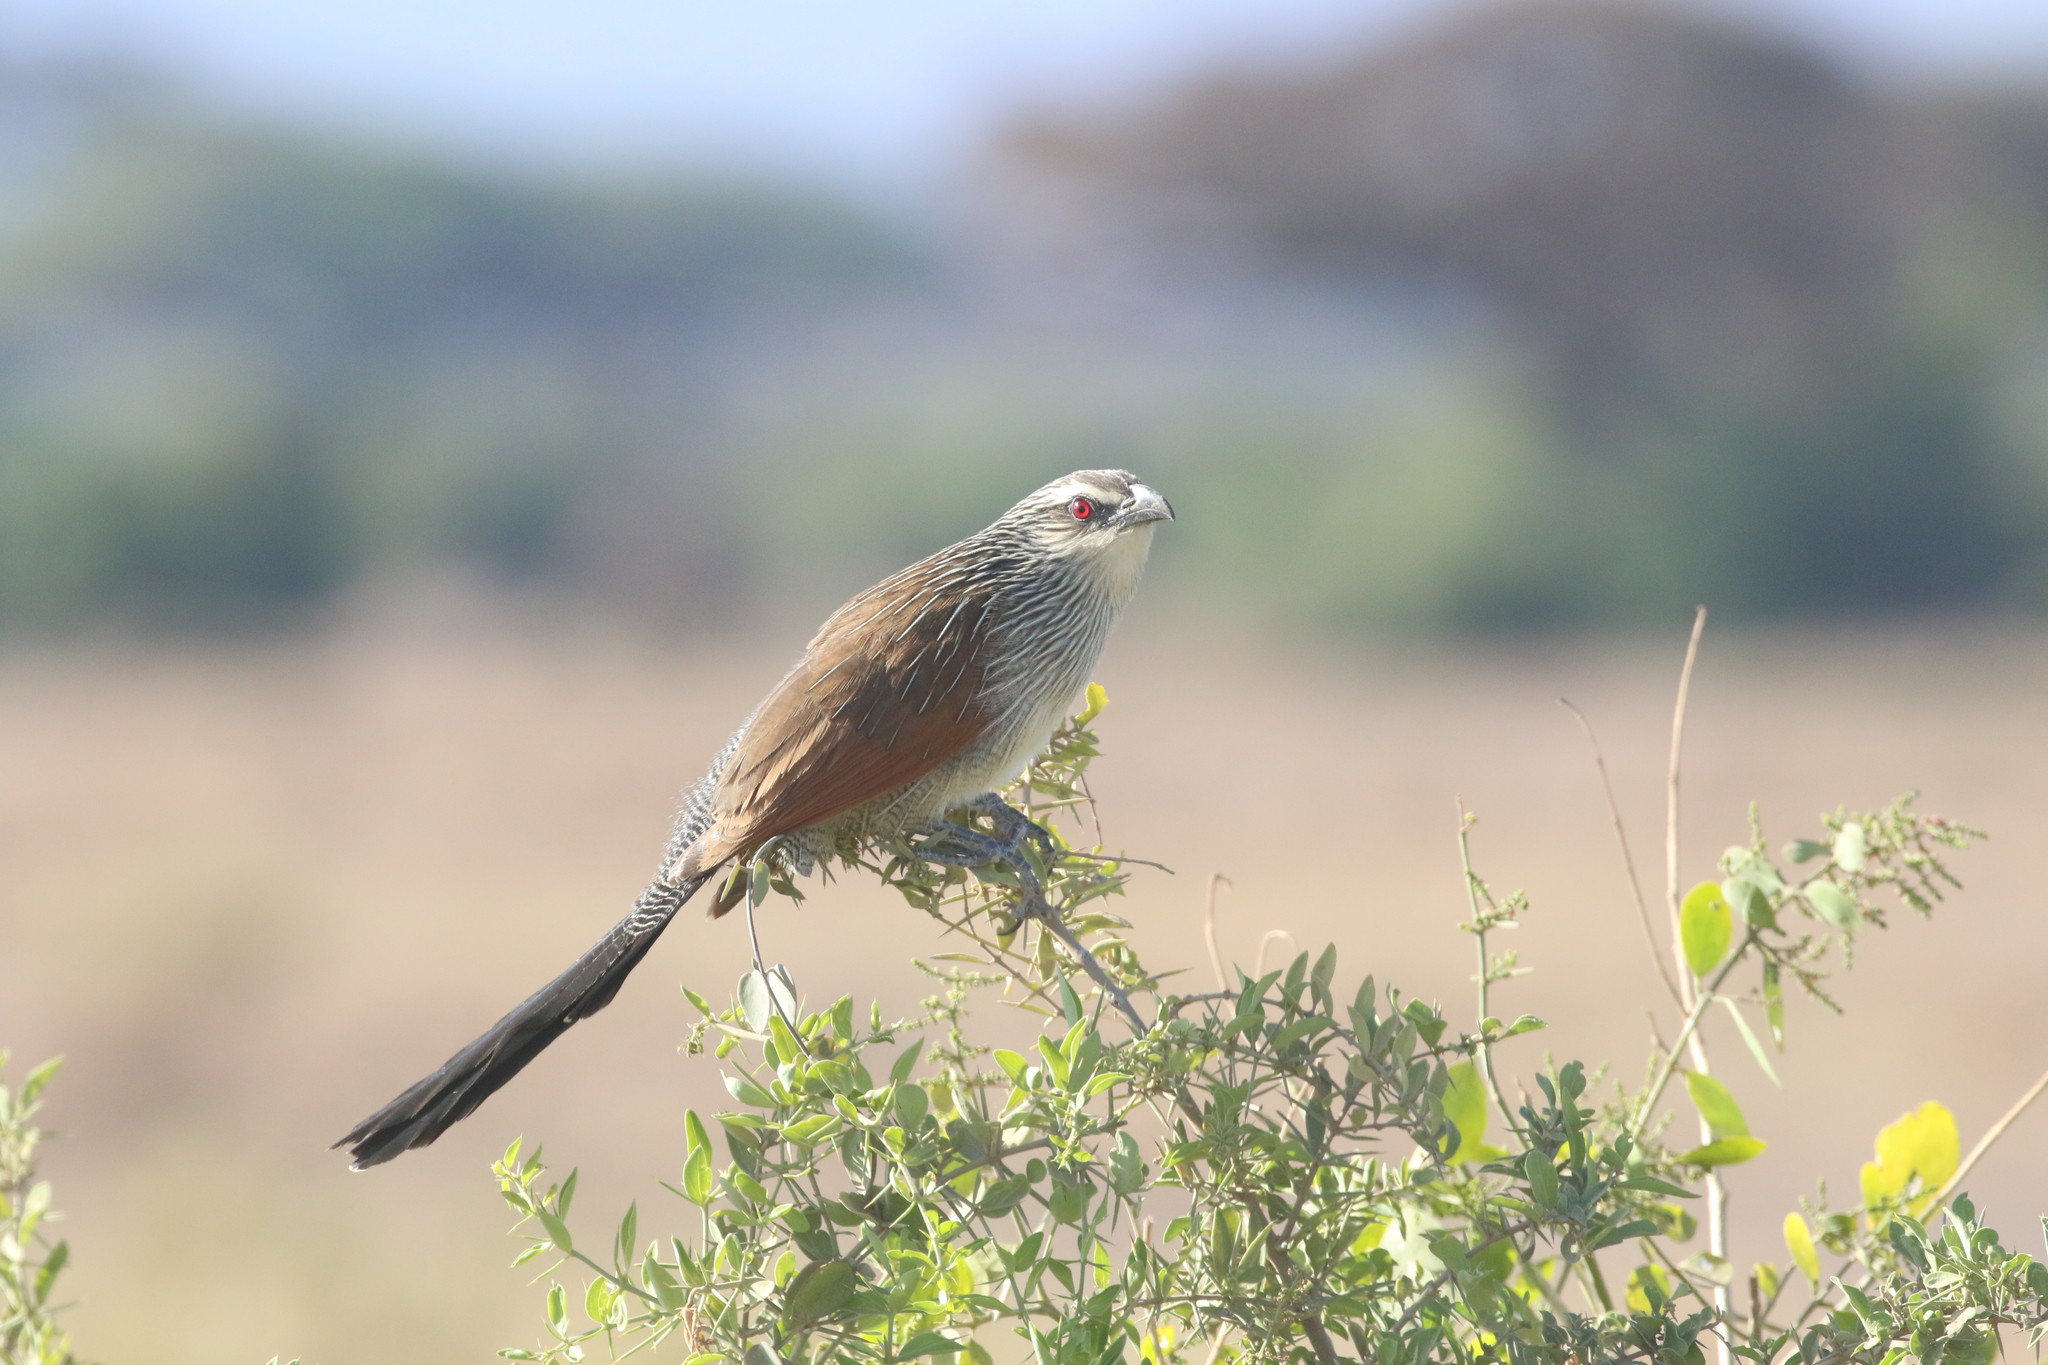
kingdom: Animalia
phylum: Chordata
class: Aves
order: Cuculiformes
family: Cuculidae
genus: Centropus
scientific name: Centropus superciliosus
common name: White-browed coucal
